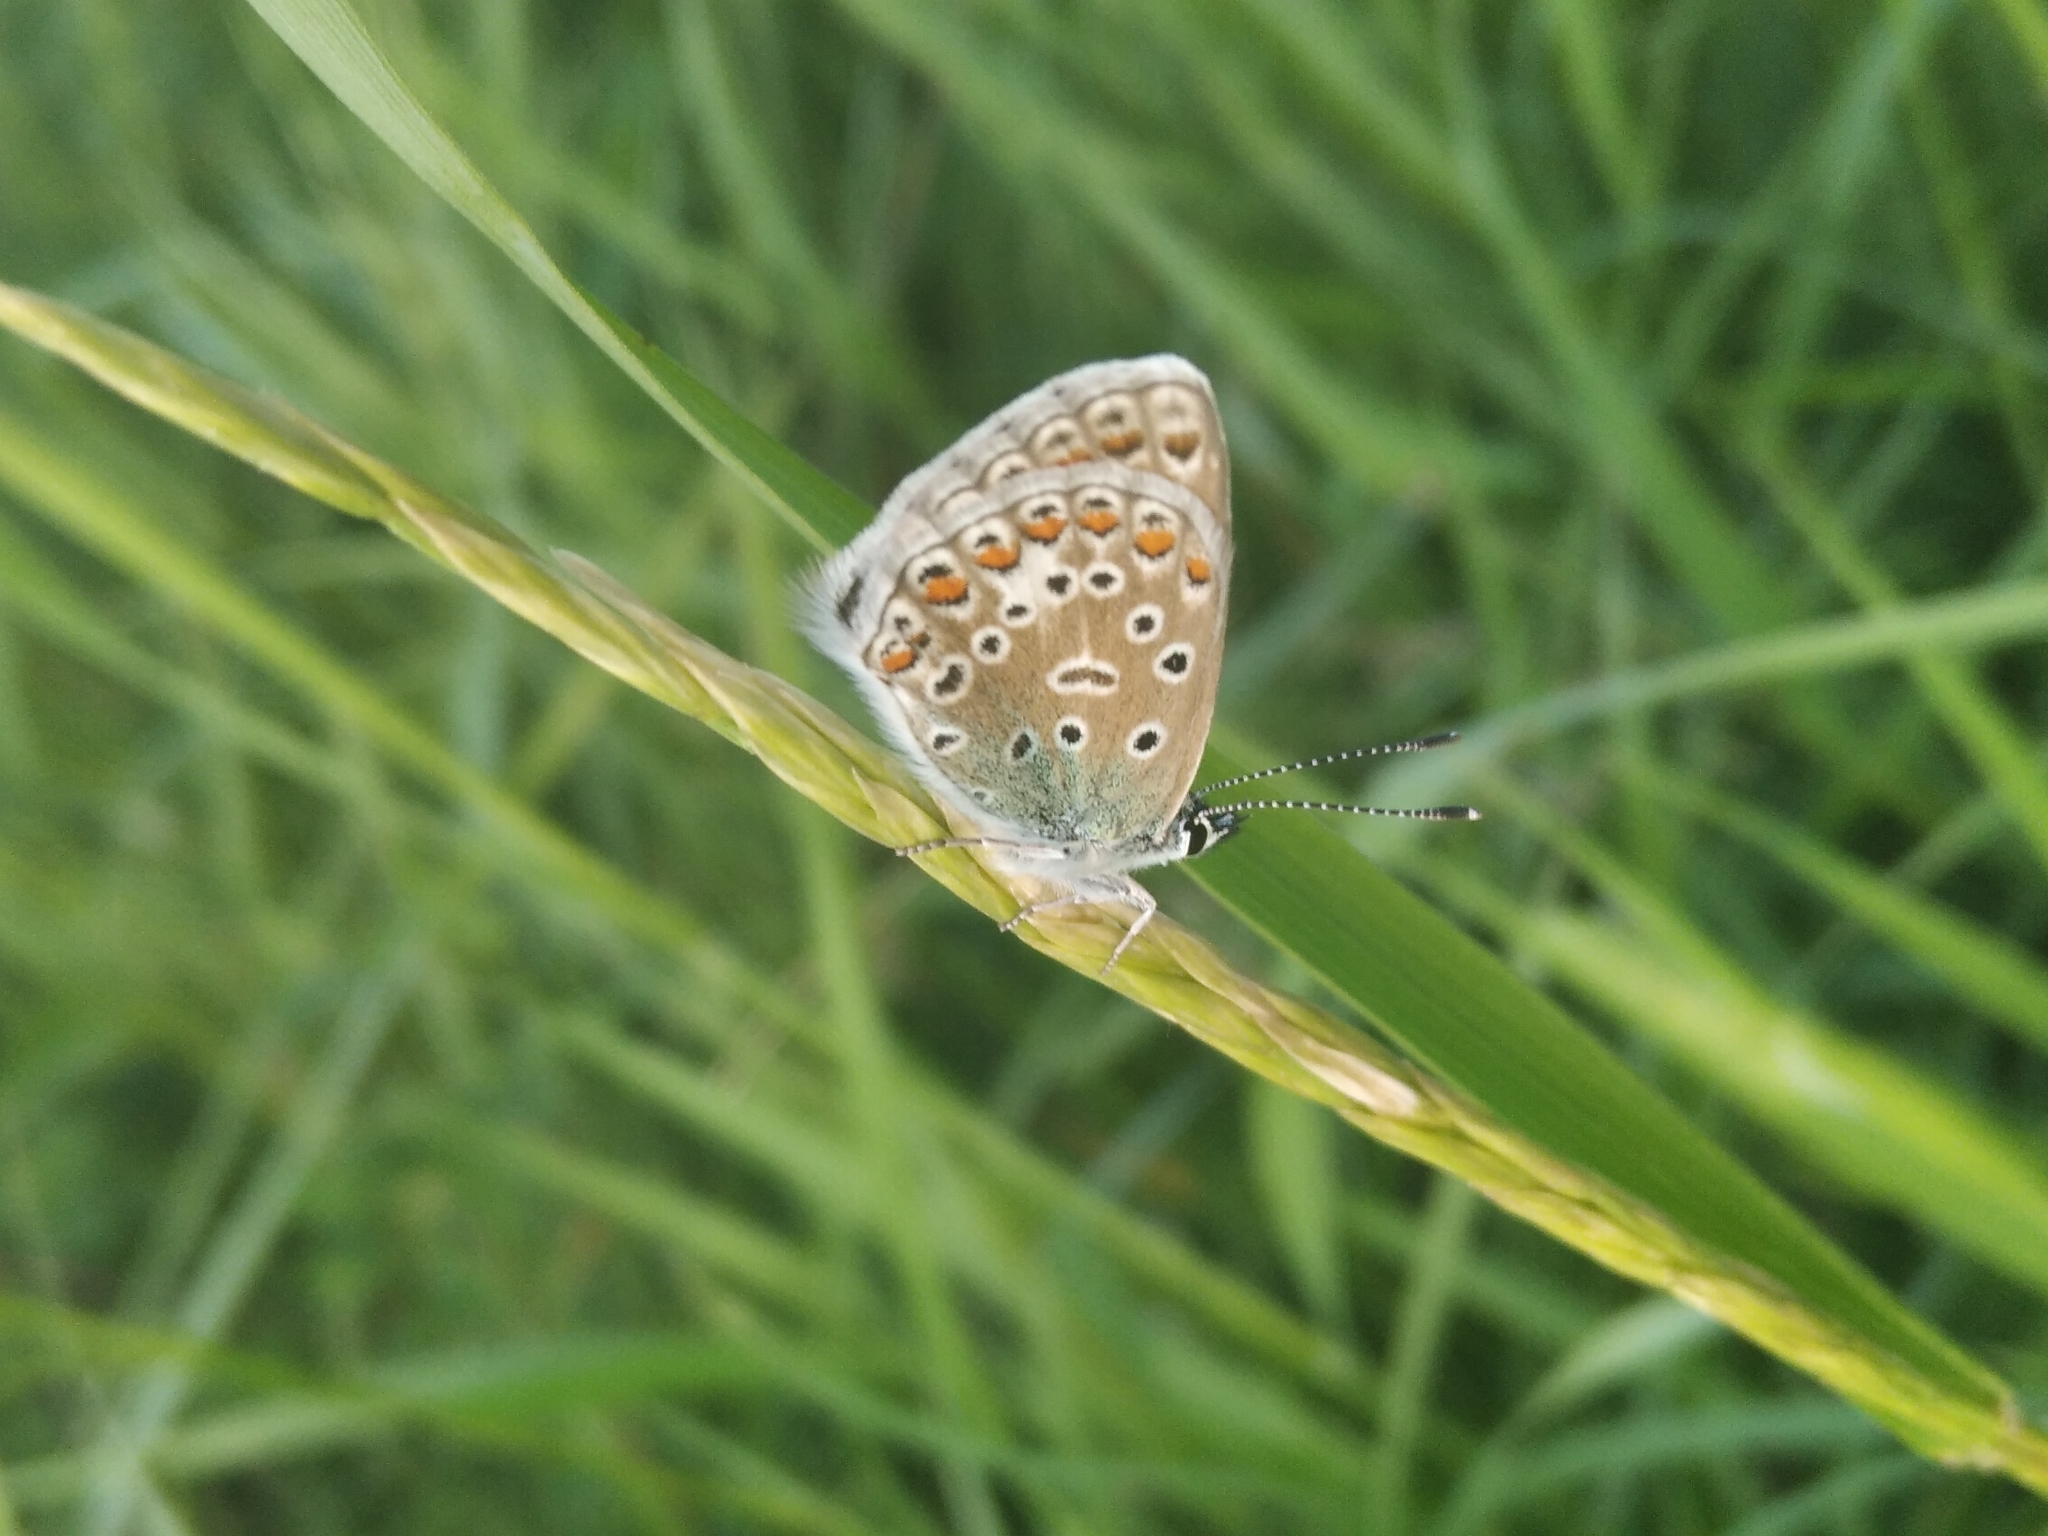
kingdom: Animalia
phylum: Arthropoda
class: Insecta
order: Lepidoptera
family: Lycaenidae
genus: Polyommatus
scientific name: Polyommatus icarus
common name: Common blue
